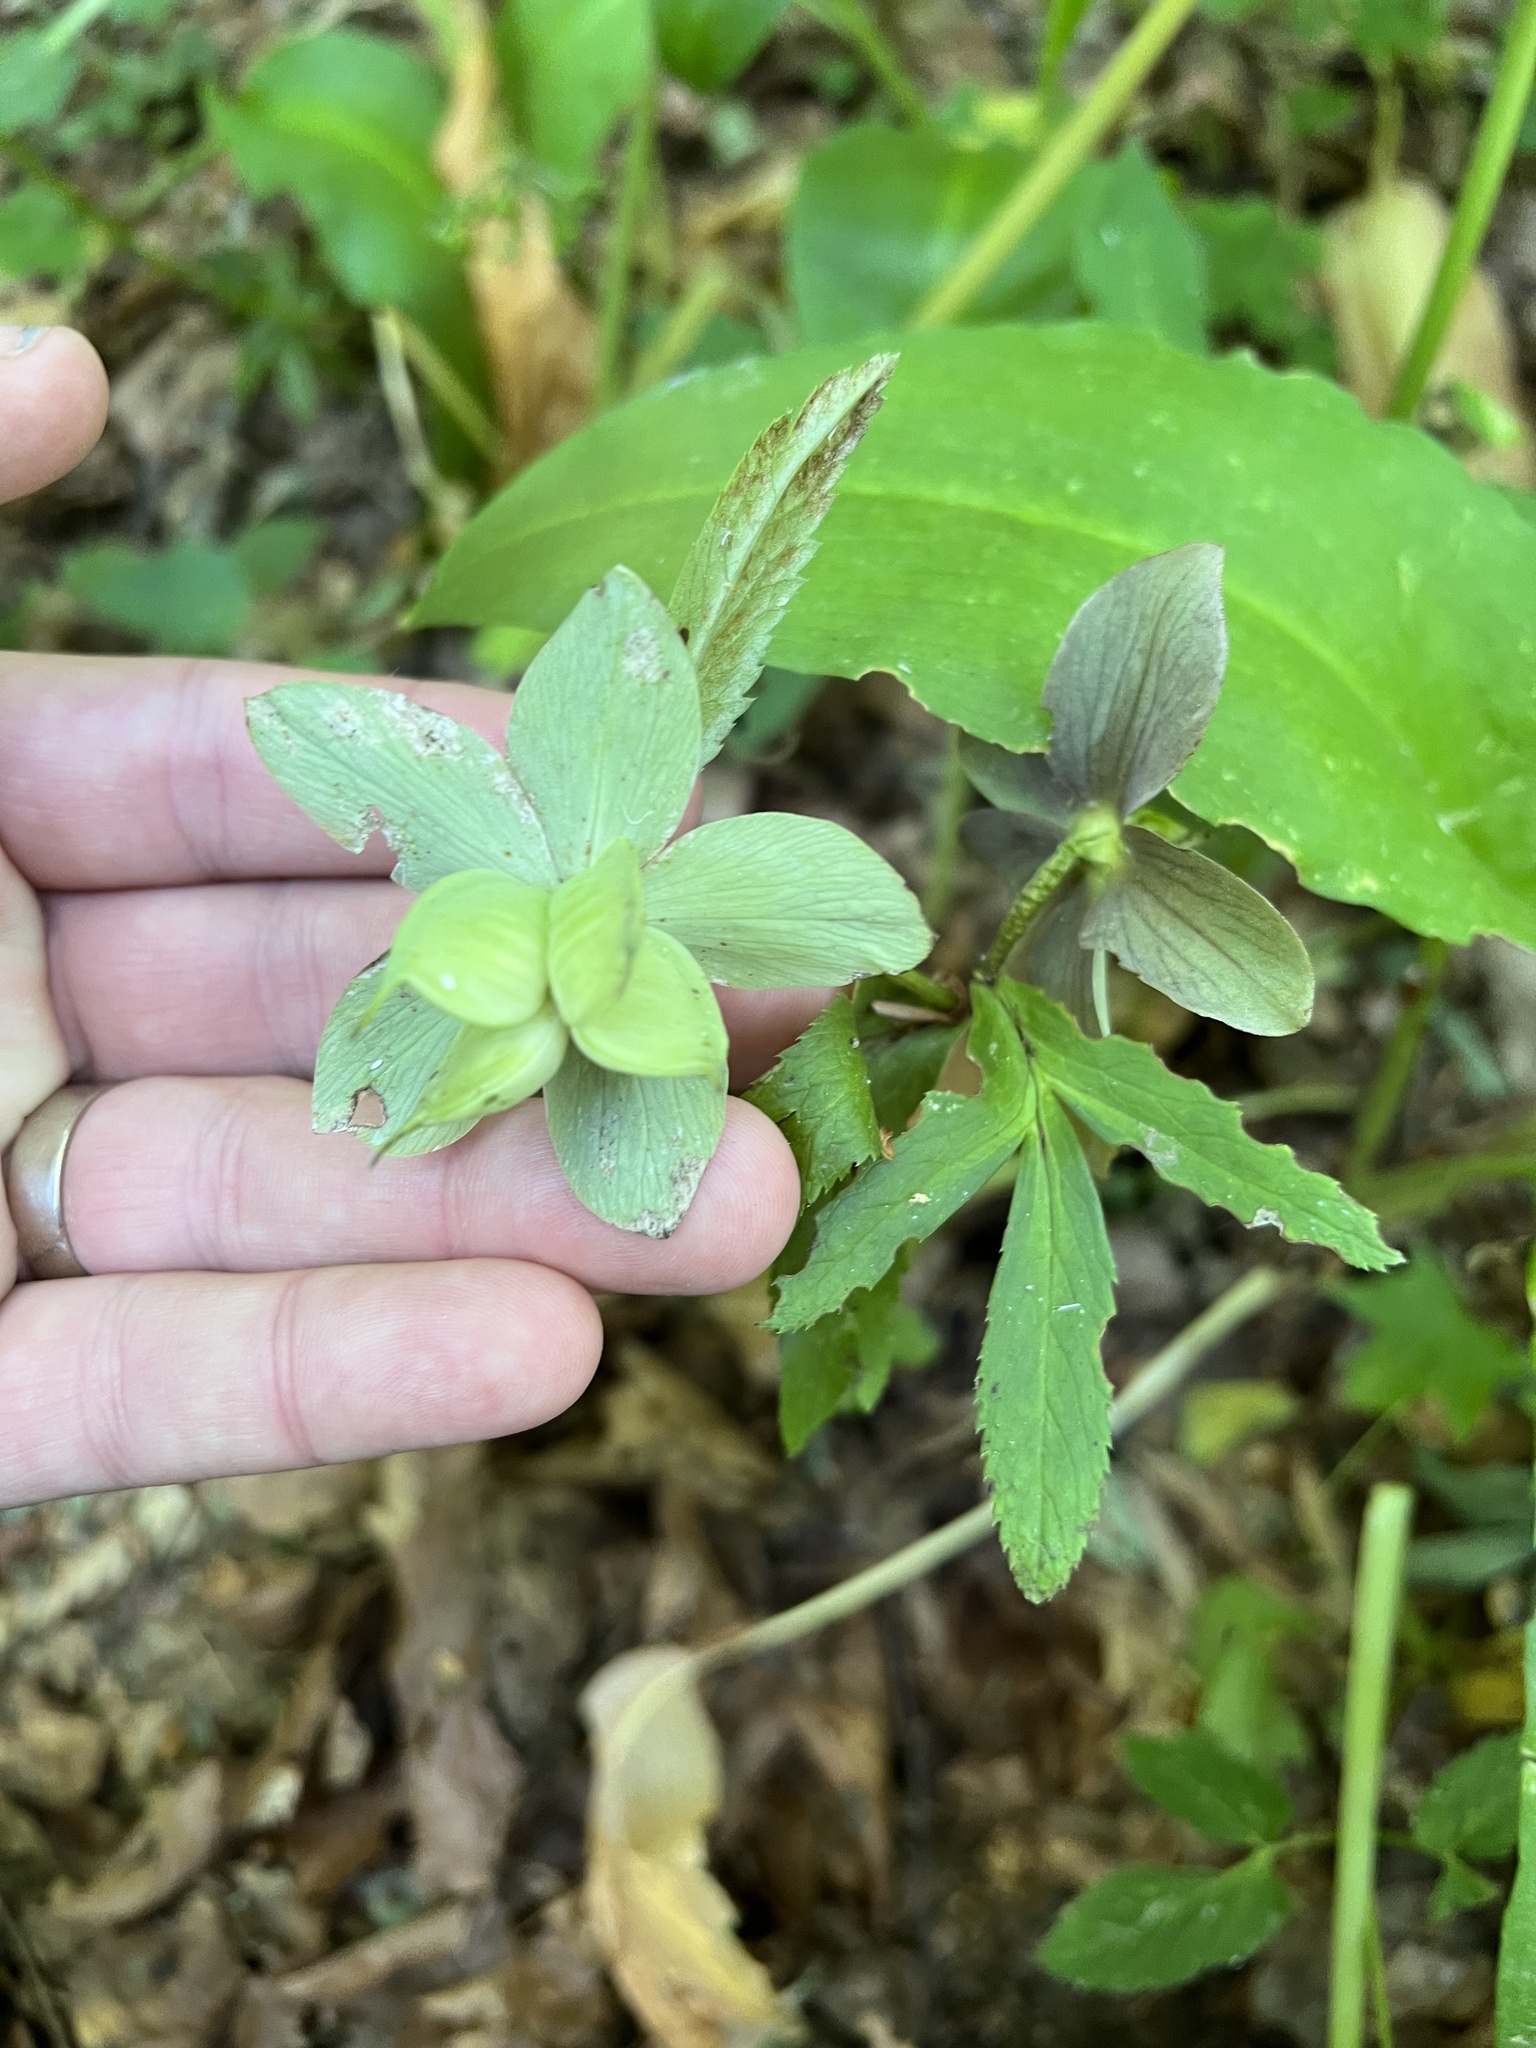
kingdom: Plantae
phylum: Tracheophyta
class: Magnoliopsida
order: Ranunculales
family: Ranunculaceae
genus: Helleborus
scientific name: Helleborus purpurascens
